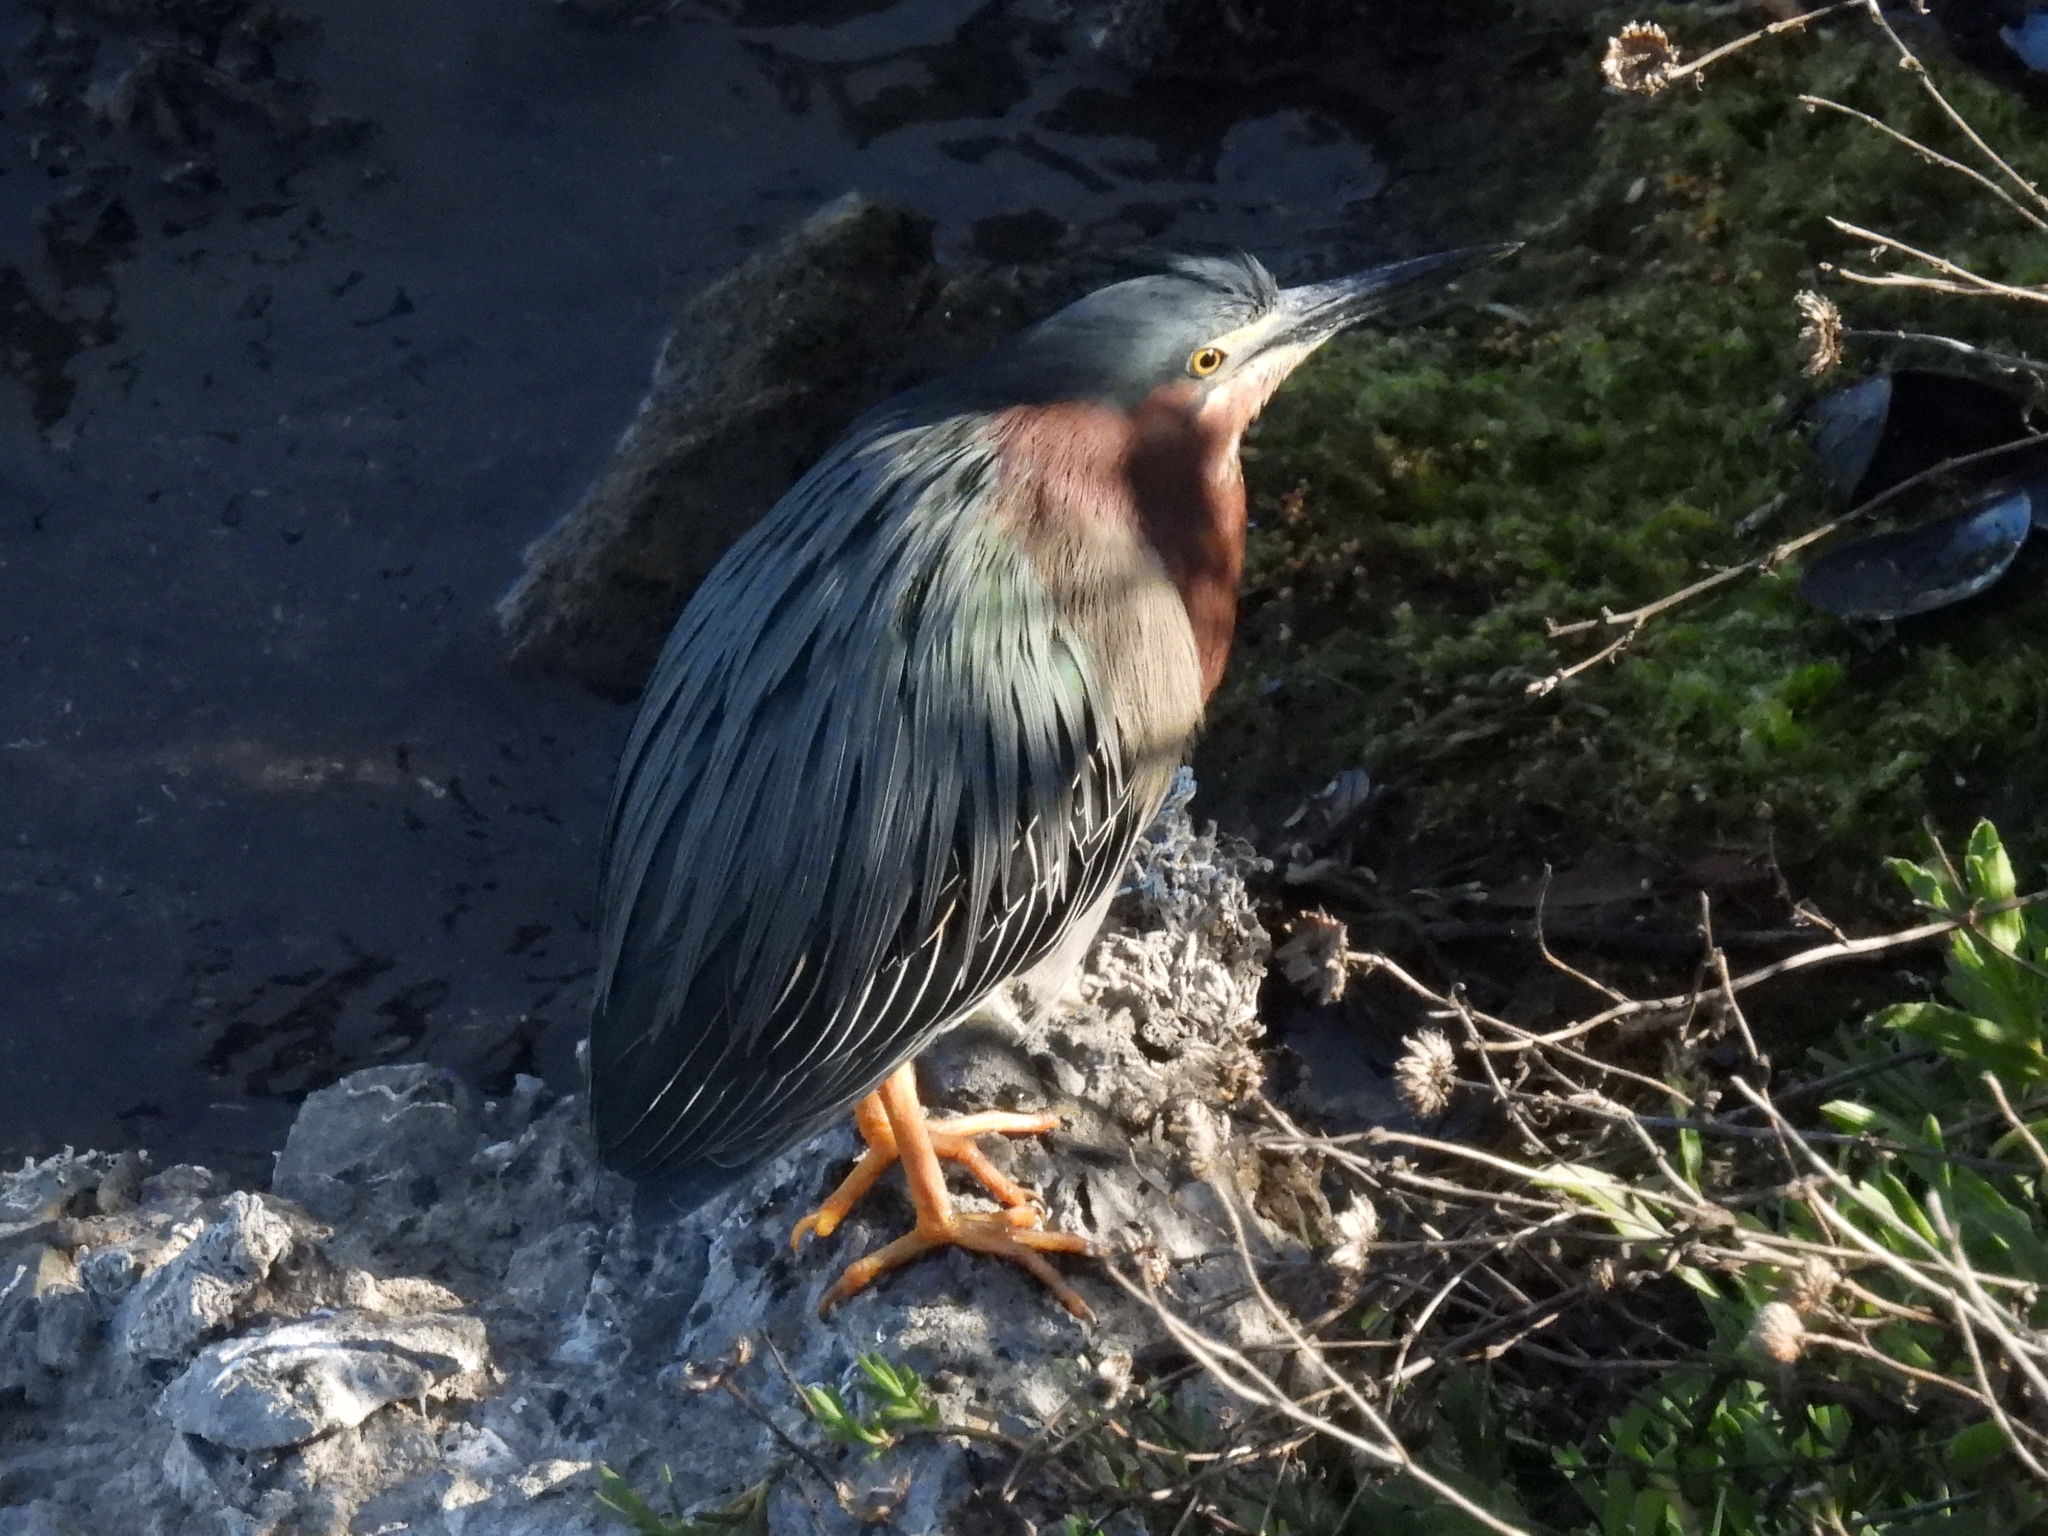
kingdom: Animalia
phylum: Chordata
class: Aves
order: Pelecaniformes
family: Ardeidae
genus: Butorides
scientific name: Butorides virescens
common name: Green heron
